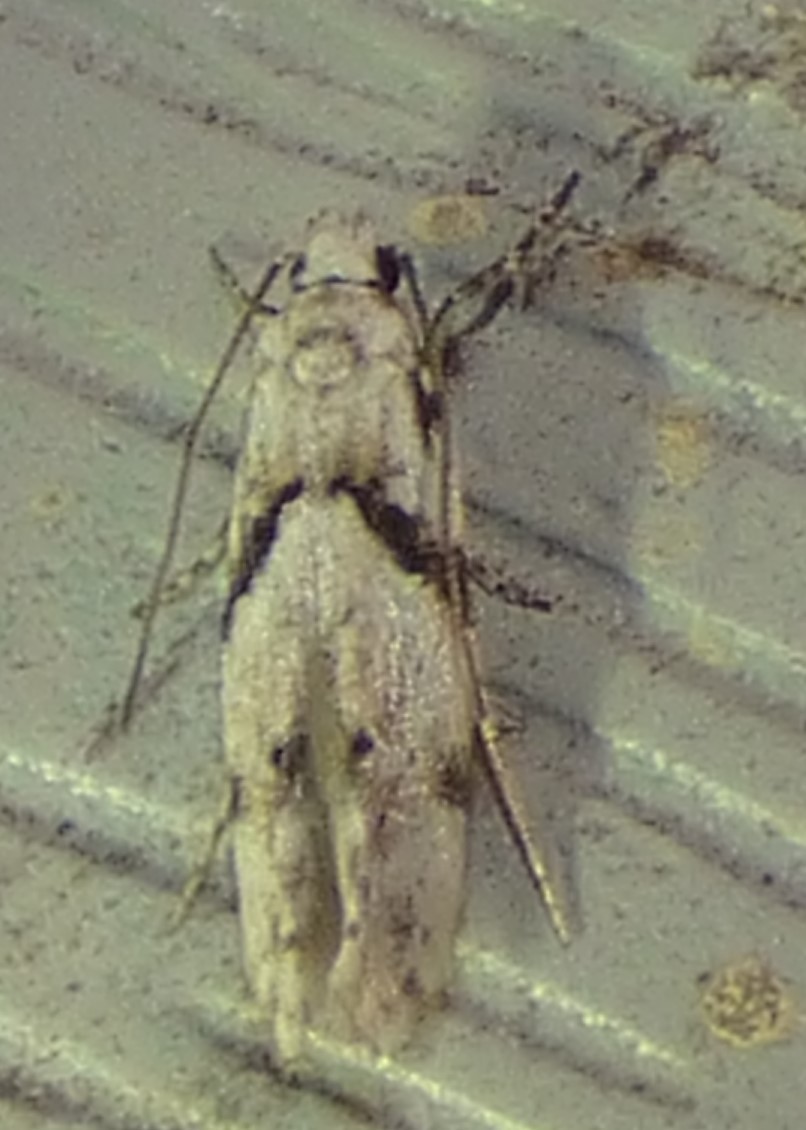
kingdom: Animalia
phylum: Arthropoda
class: Insecta
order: Lepidoptera
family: Gelechiidae
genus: Arogalea
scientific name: Arogalea cristifasciella
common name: White stripe-backed moth
